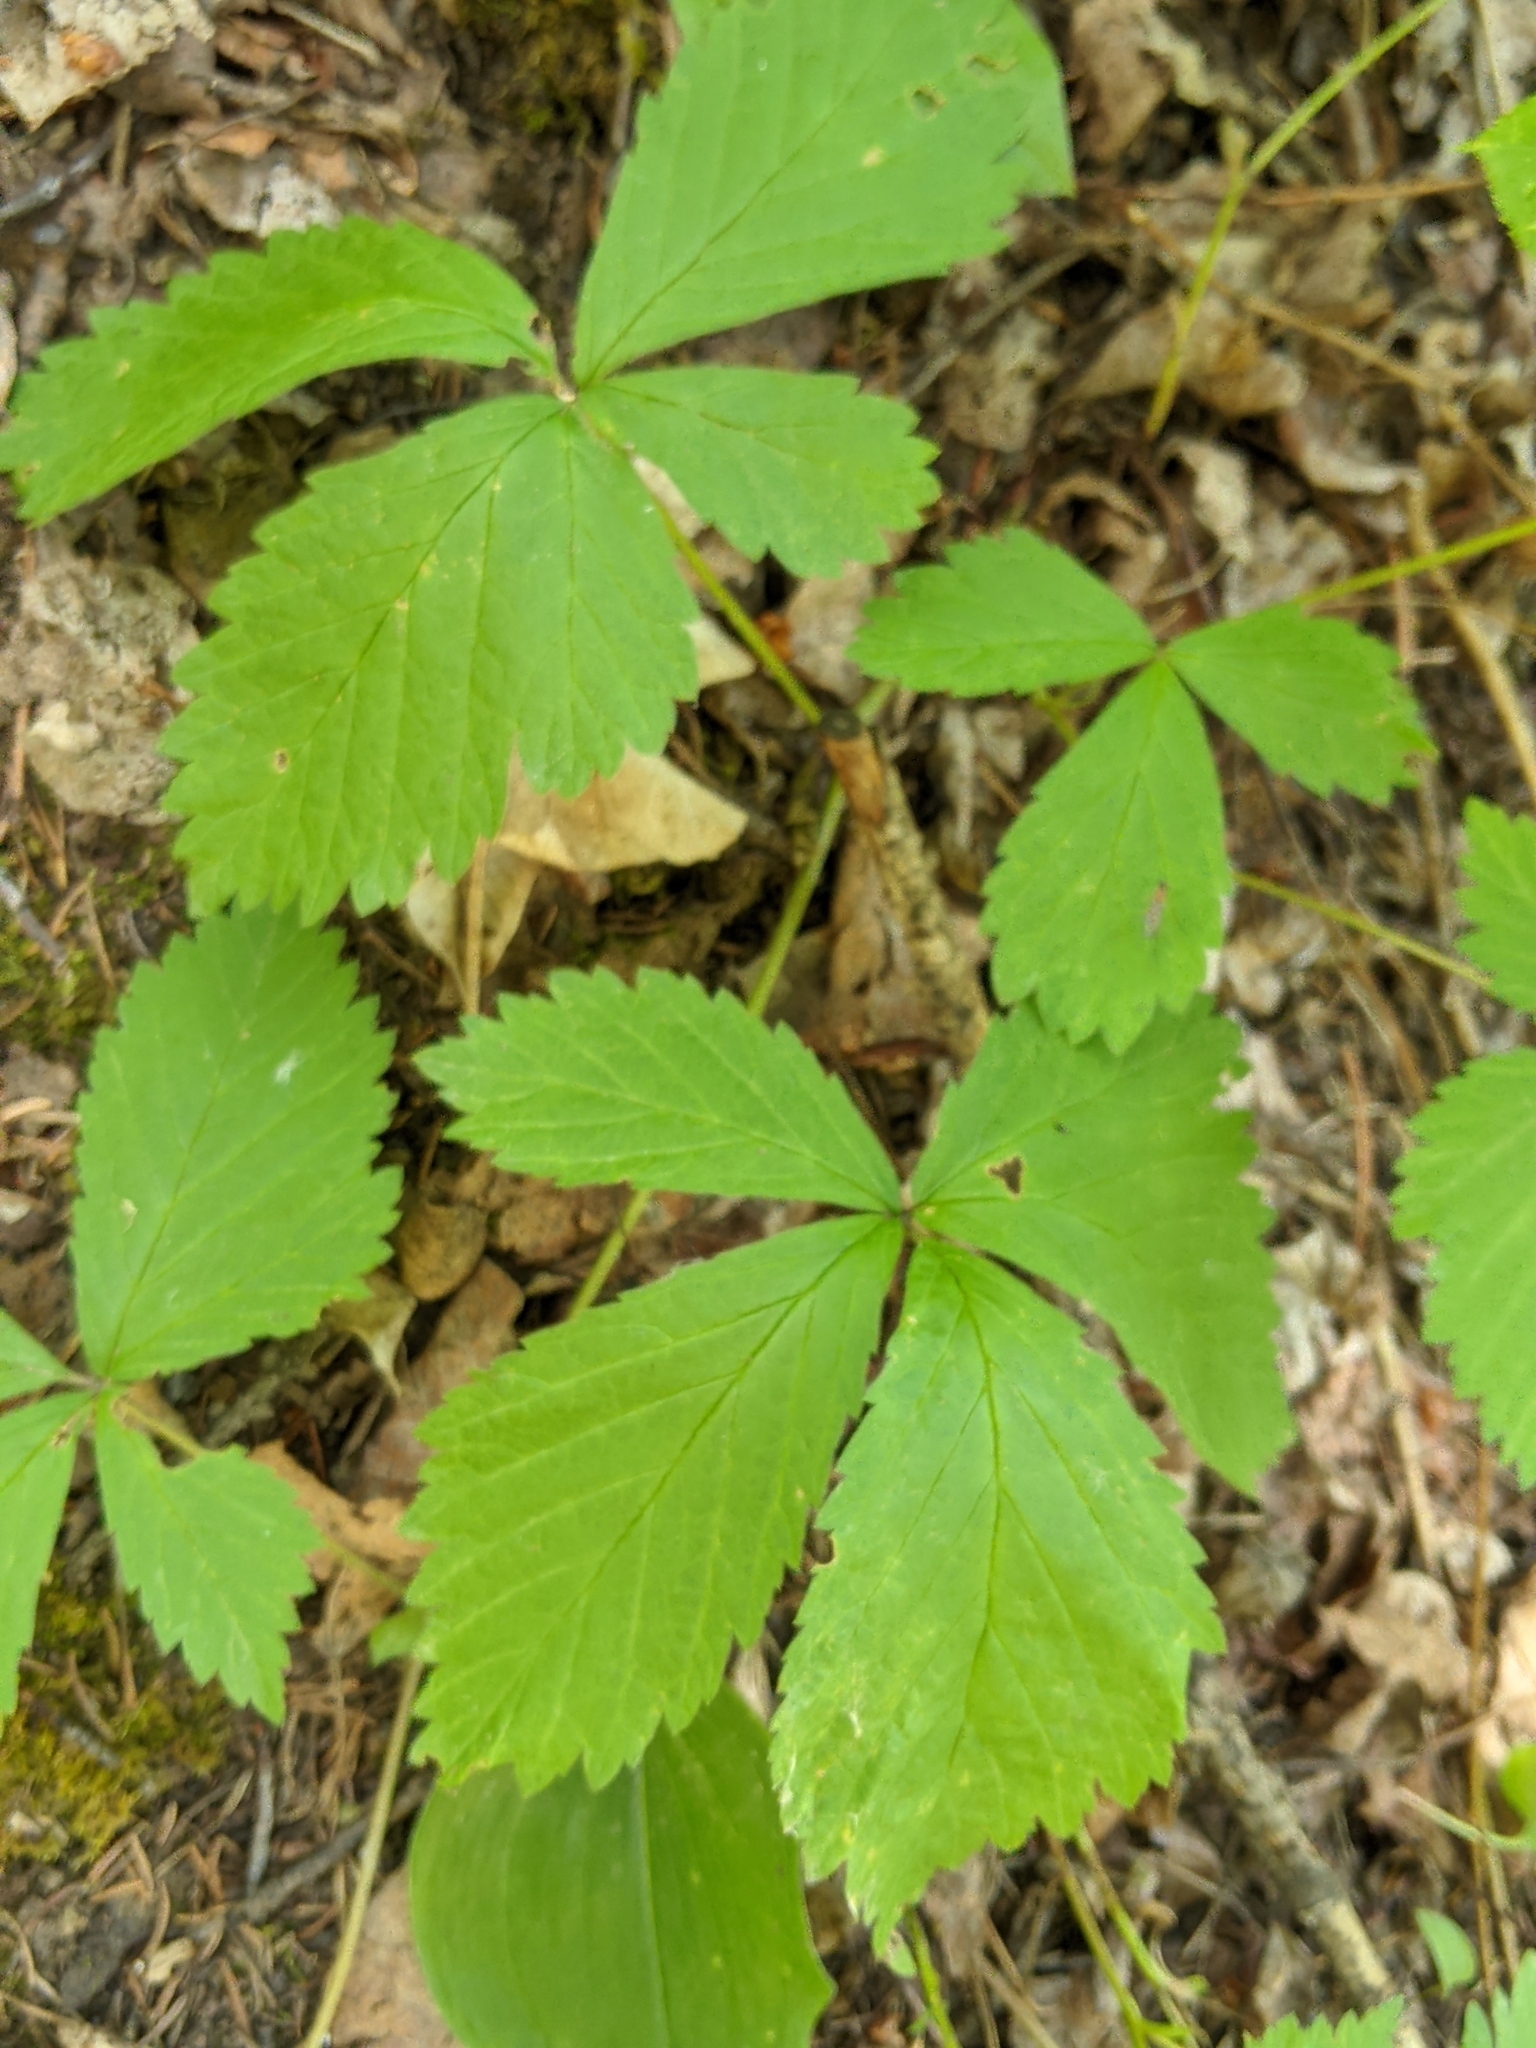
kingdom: Plantae
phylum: Tracheophyta
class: Magnoliopsida
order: Rosales
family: Rosaceae
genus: Rubus
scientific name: Rubus pubescens
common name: Dwarf raspberry
